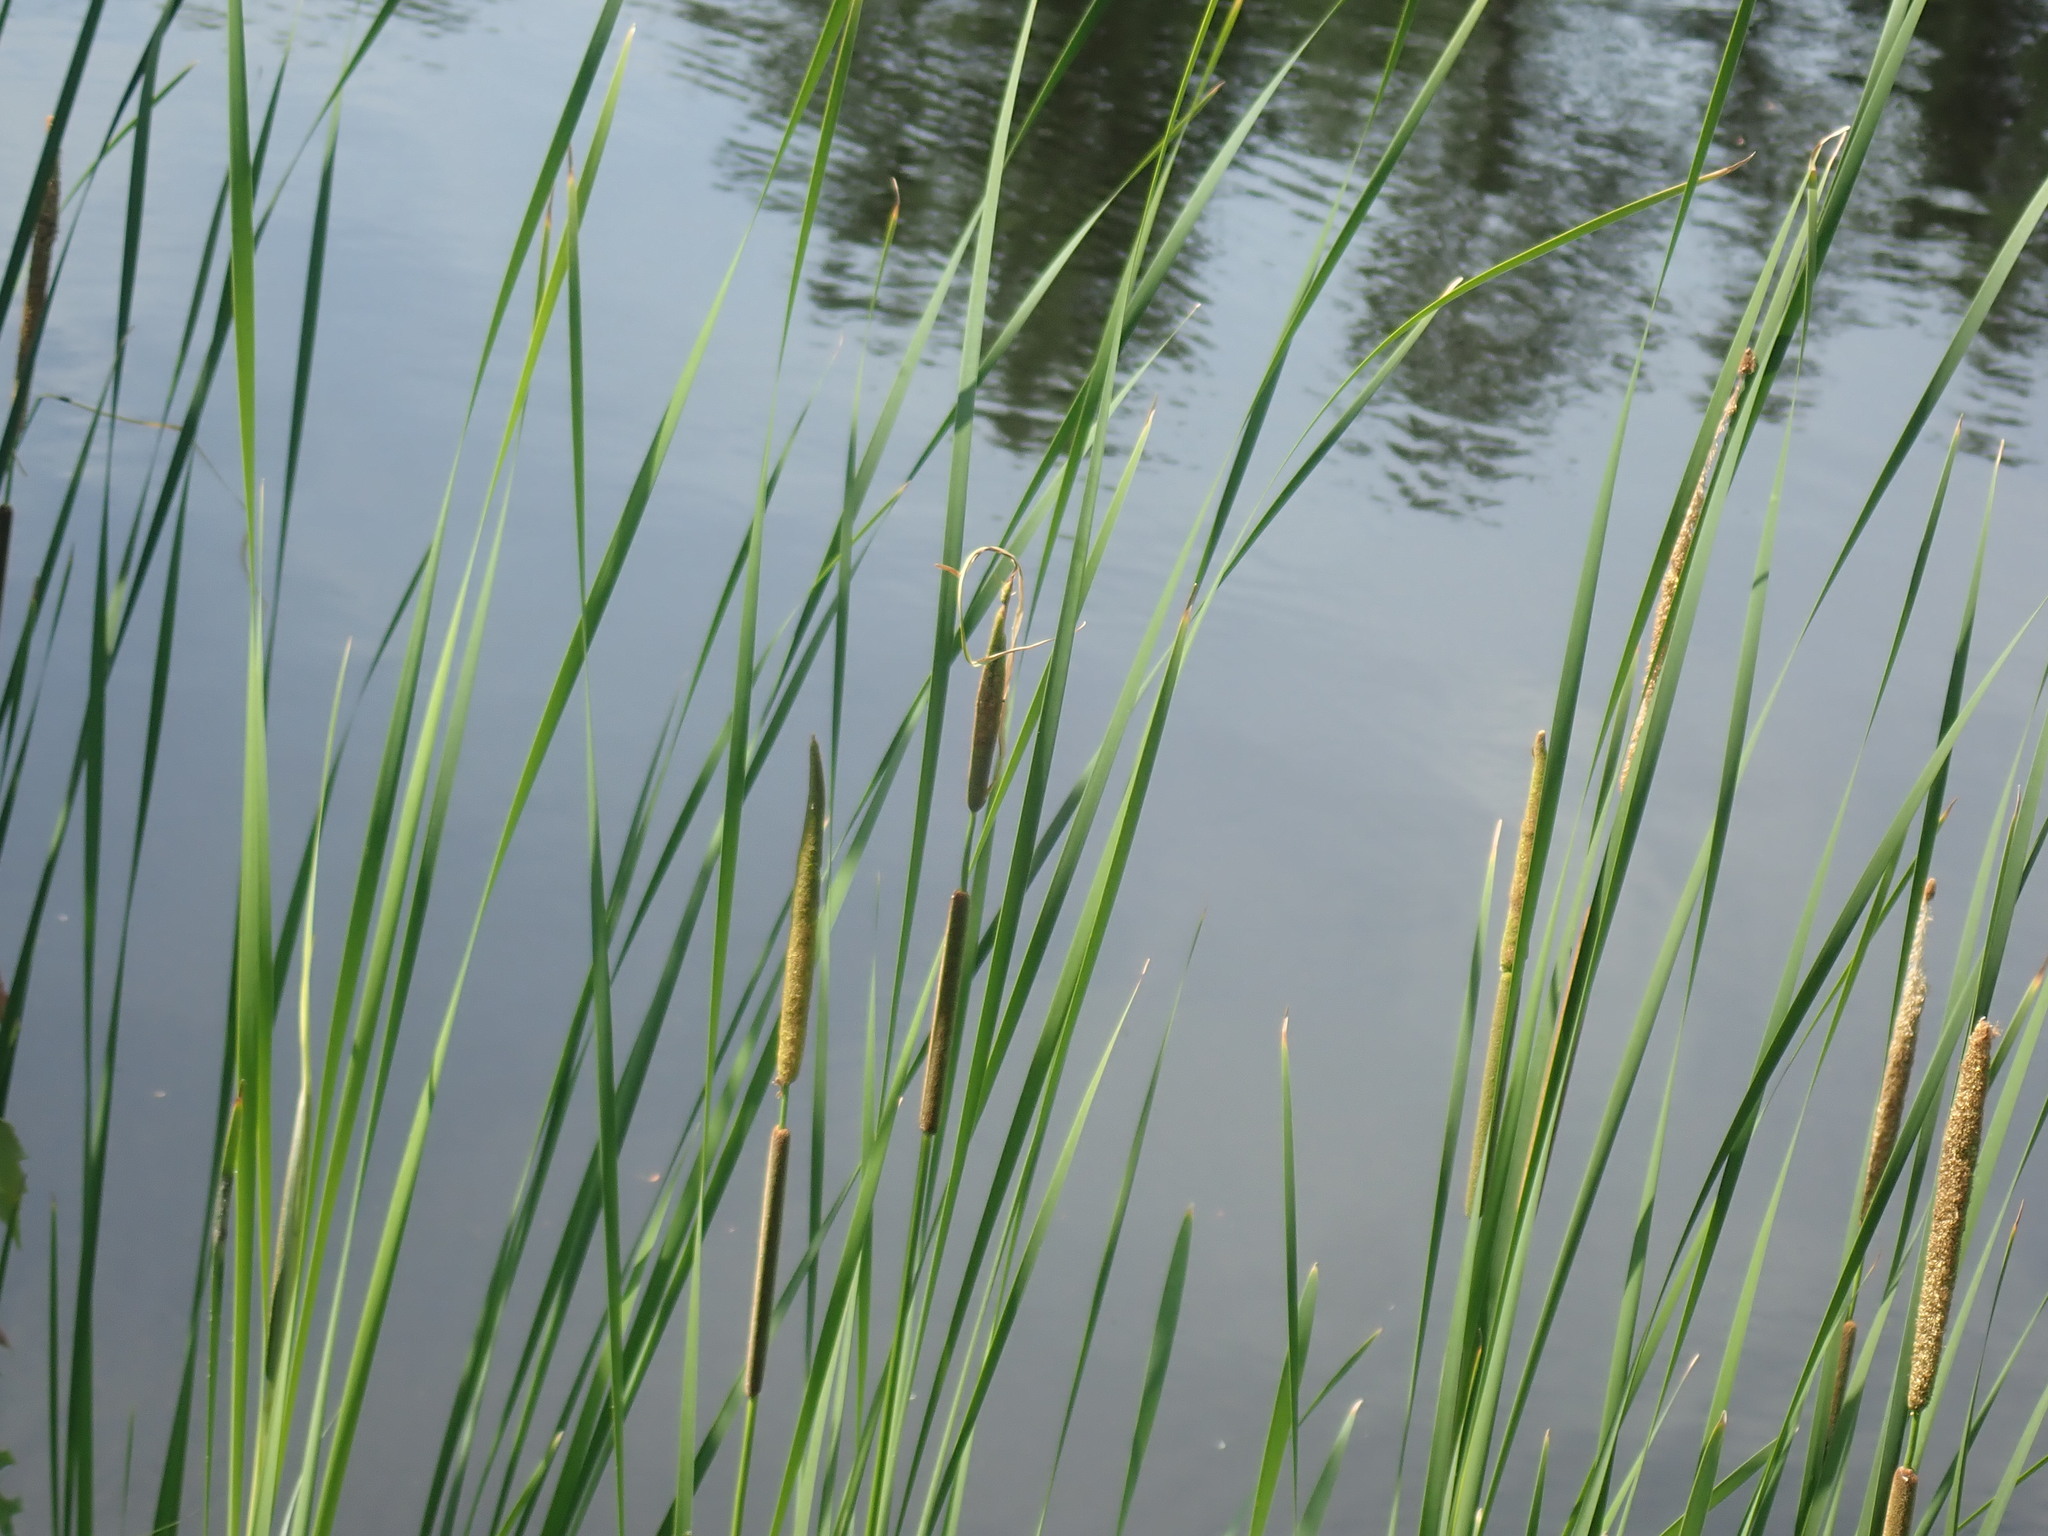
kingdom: Plantae
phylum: Tracheophyta
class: Liliopsida
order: Poales
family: Typhaceae
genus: Typha
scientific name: Typha angustifolia
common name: Lesser bulrush
